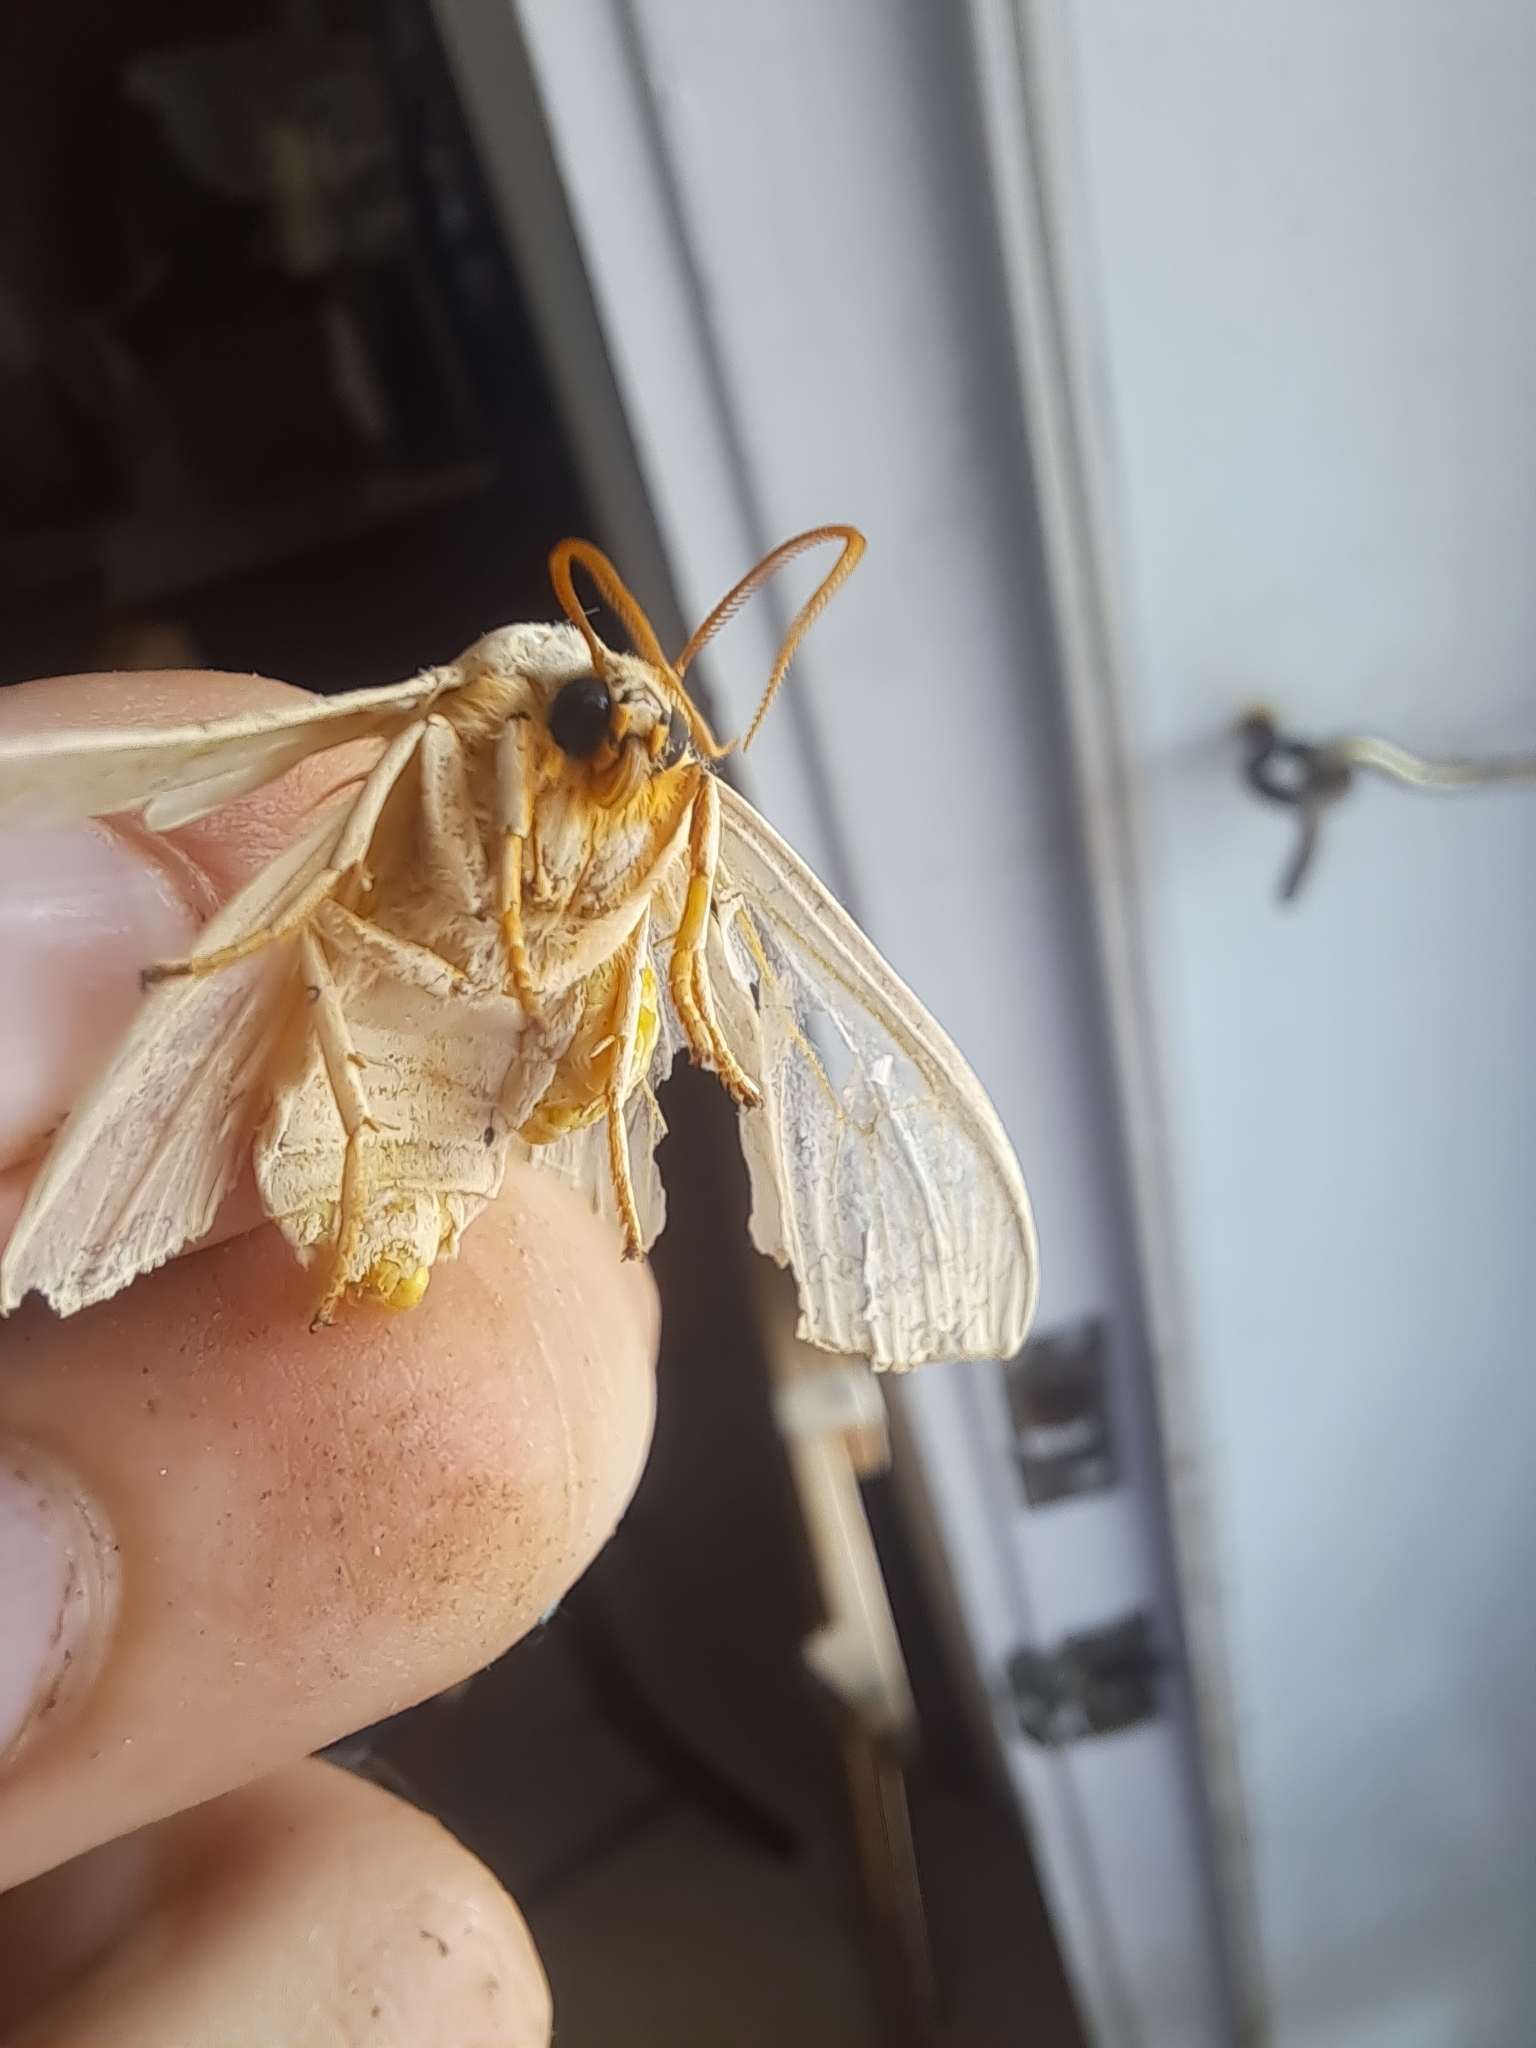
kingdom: Animalia
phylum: Arthropoda
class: Insecta
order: Lepidoptera
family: Erebidae
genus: Halysidota
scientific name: Halysidota tessellaris
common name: Banded tussock moth
